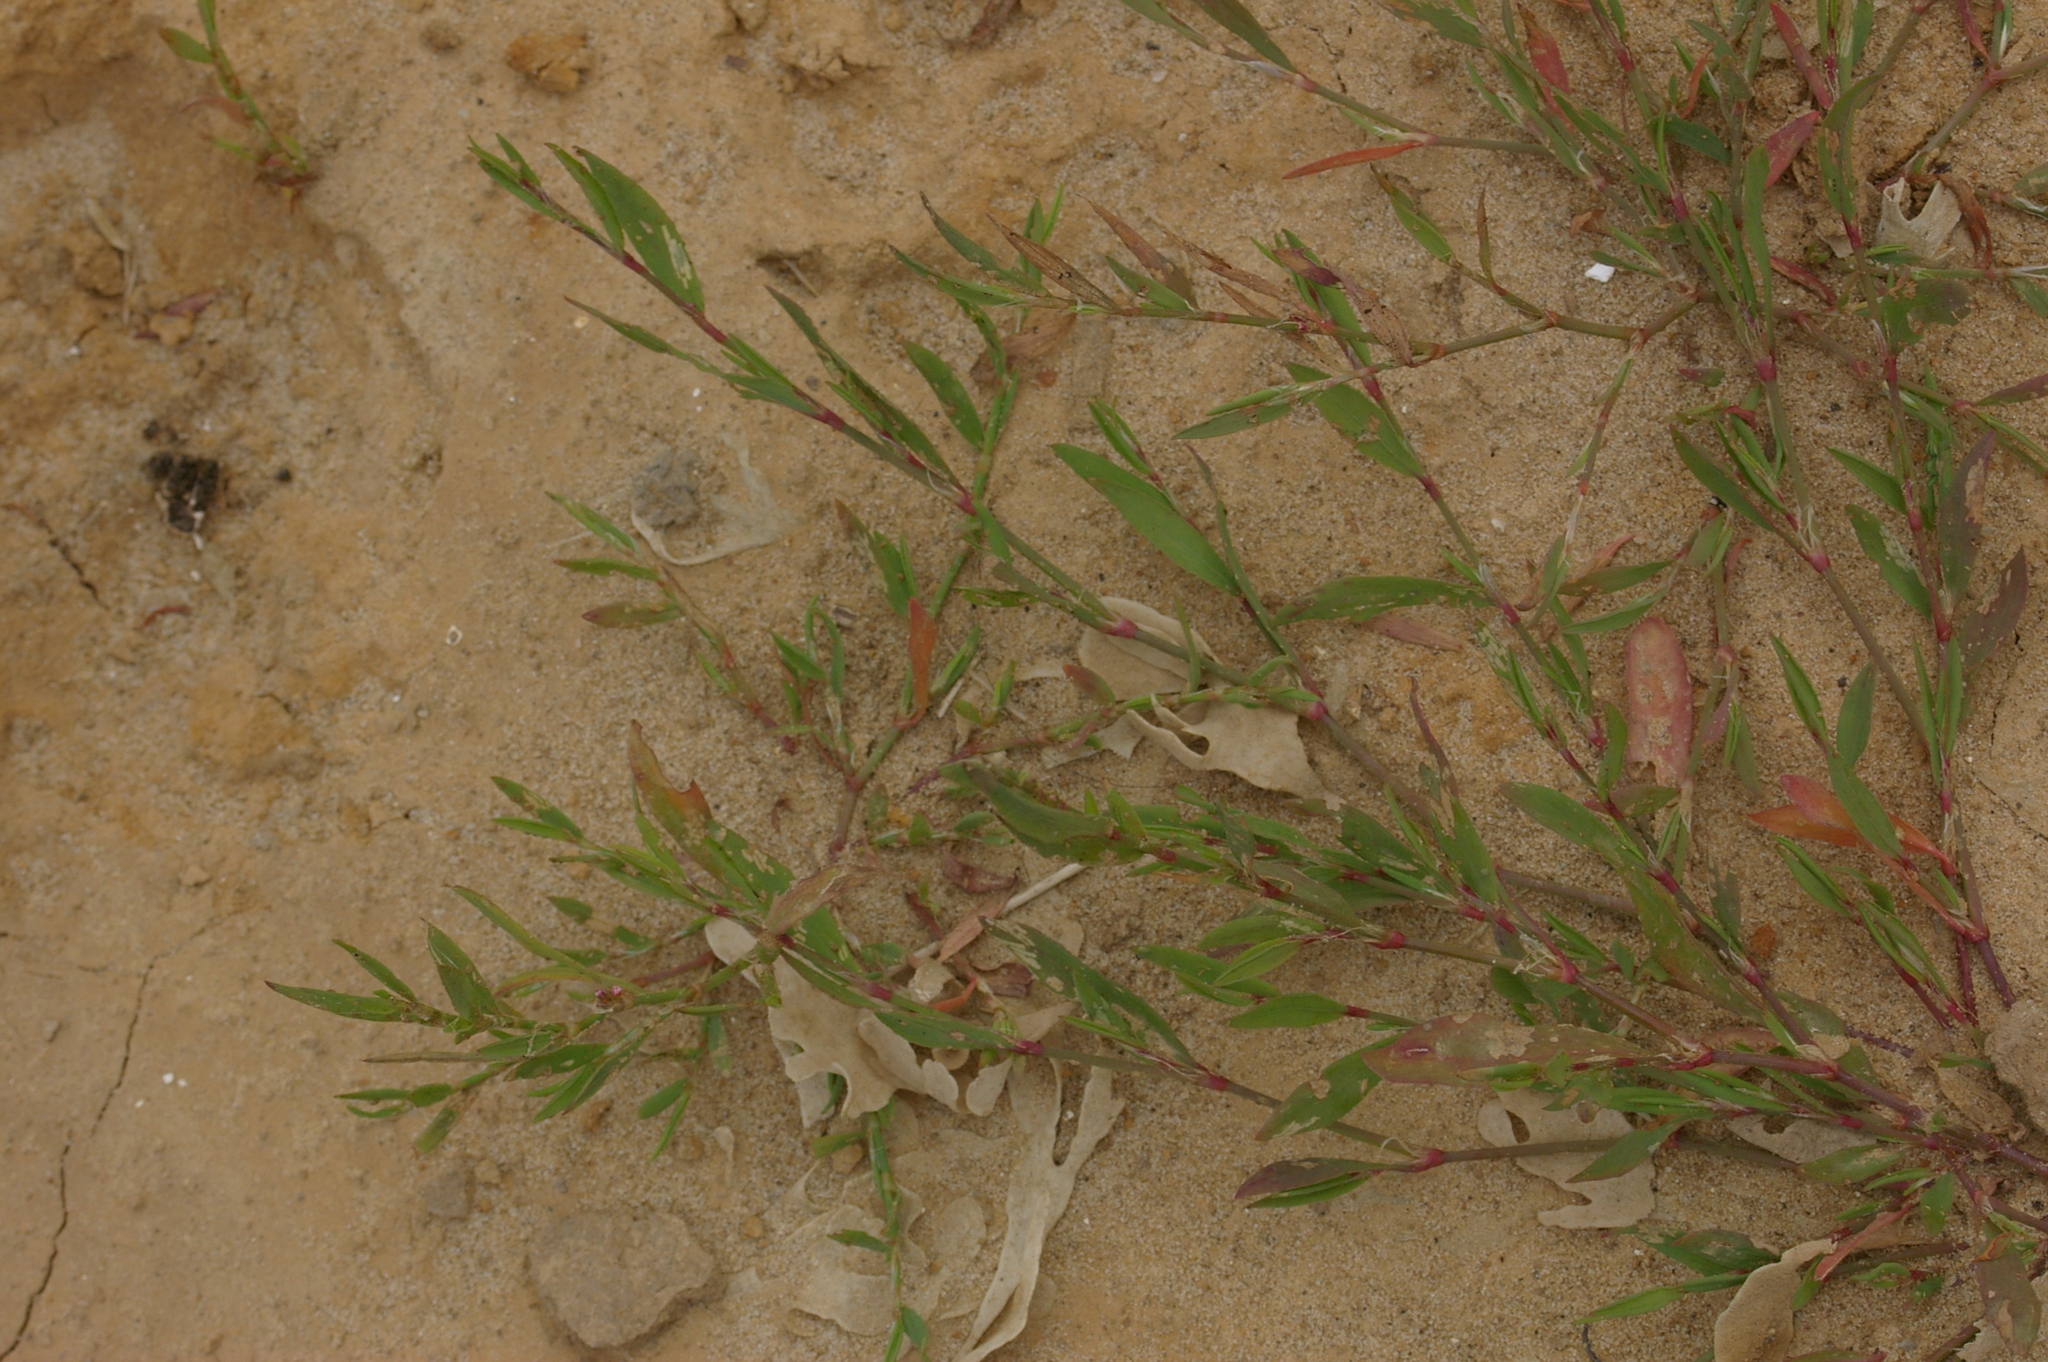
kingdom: Plantae
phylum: Tracheophyta
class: Magnoliopsida
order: Caryophyllales
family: Polygonaceae
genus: Polygonum
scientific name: Polygonum aviculare
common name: Prostrate knotweed
